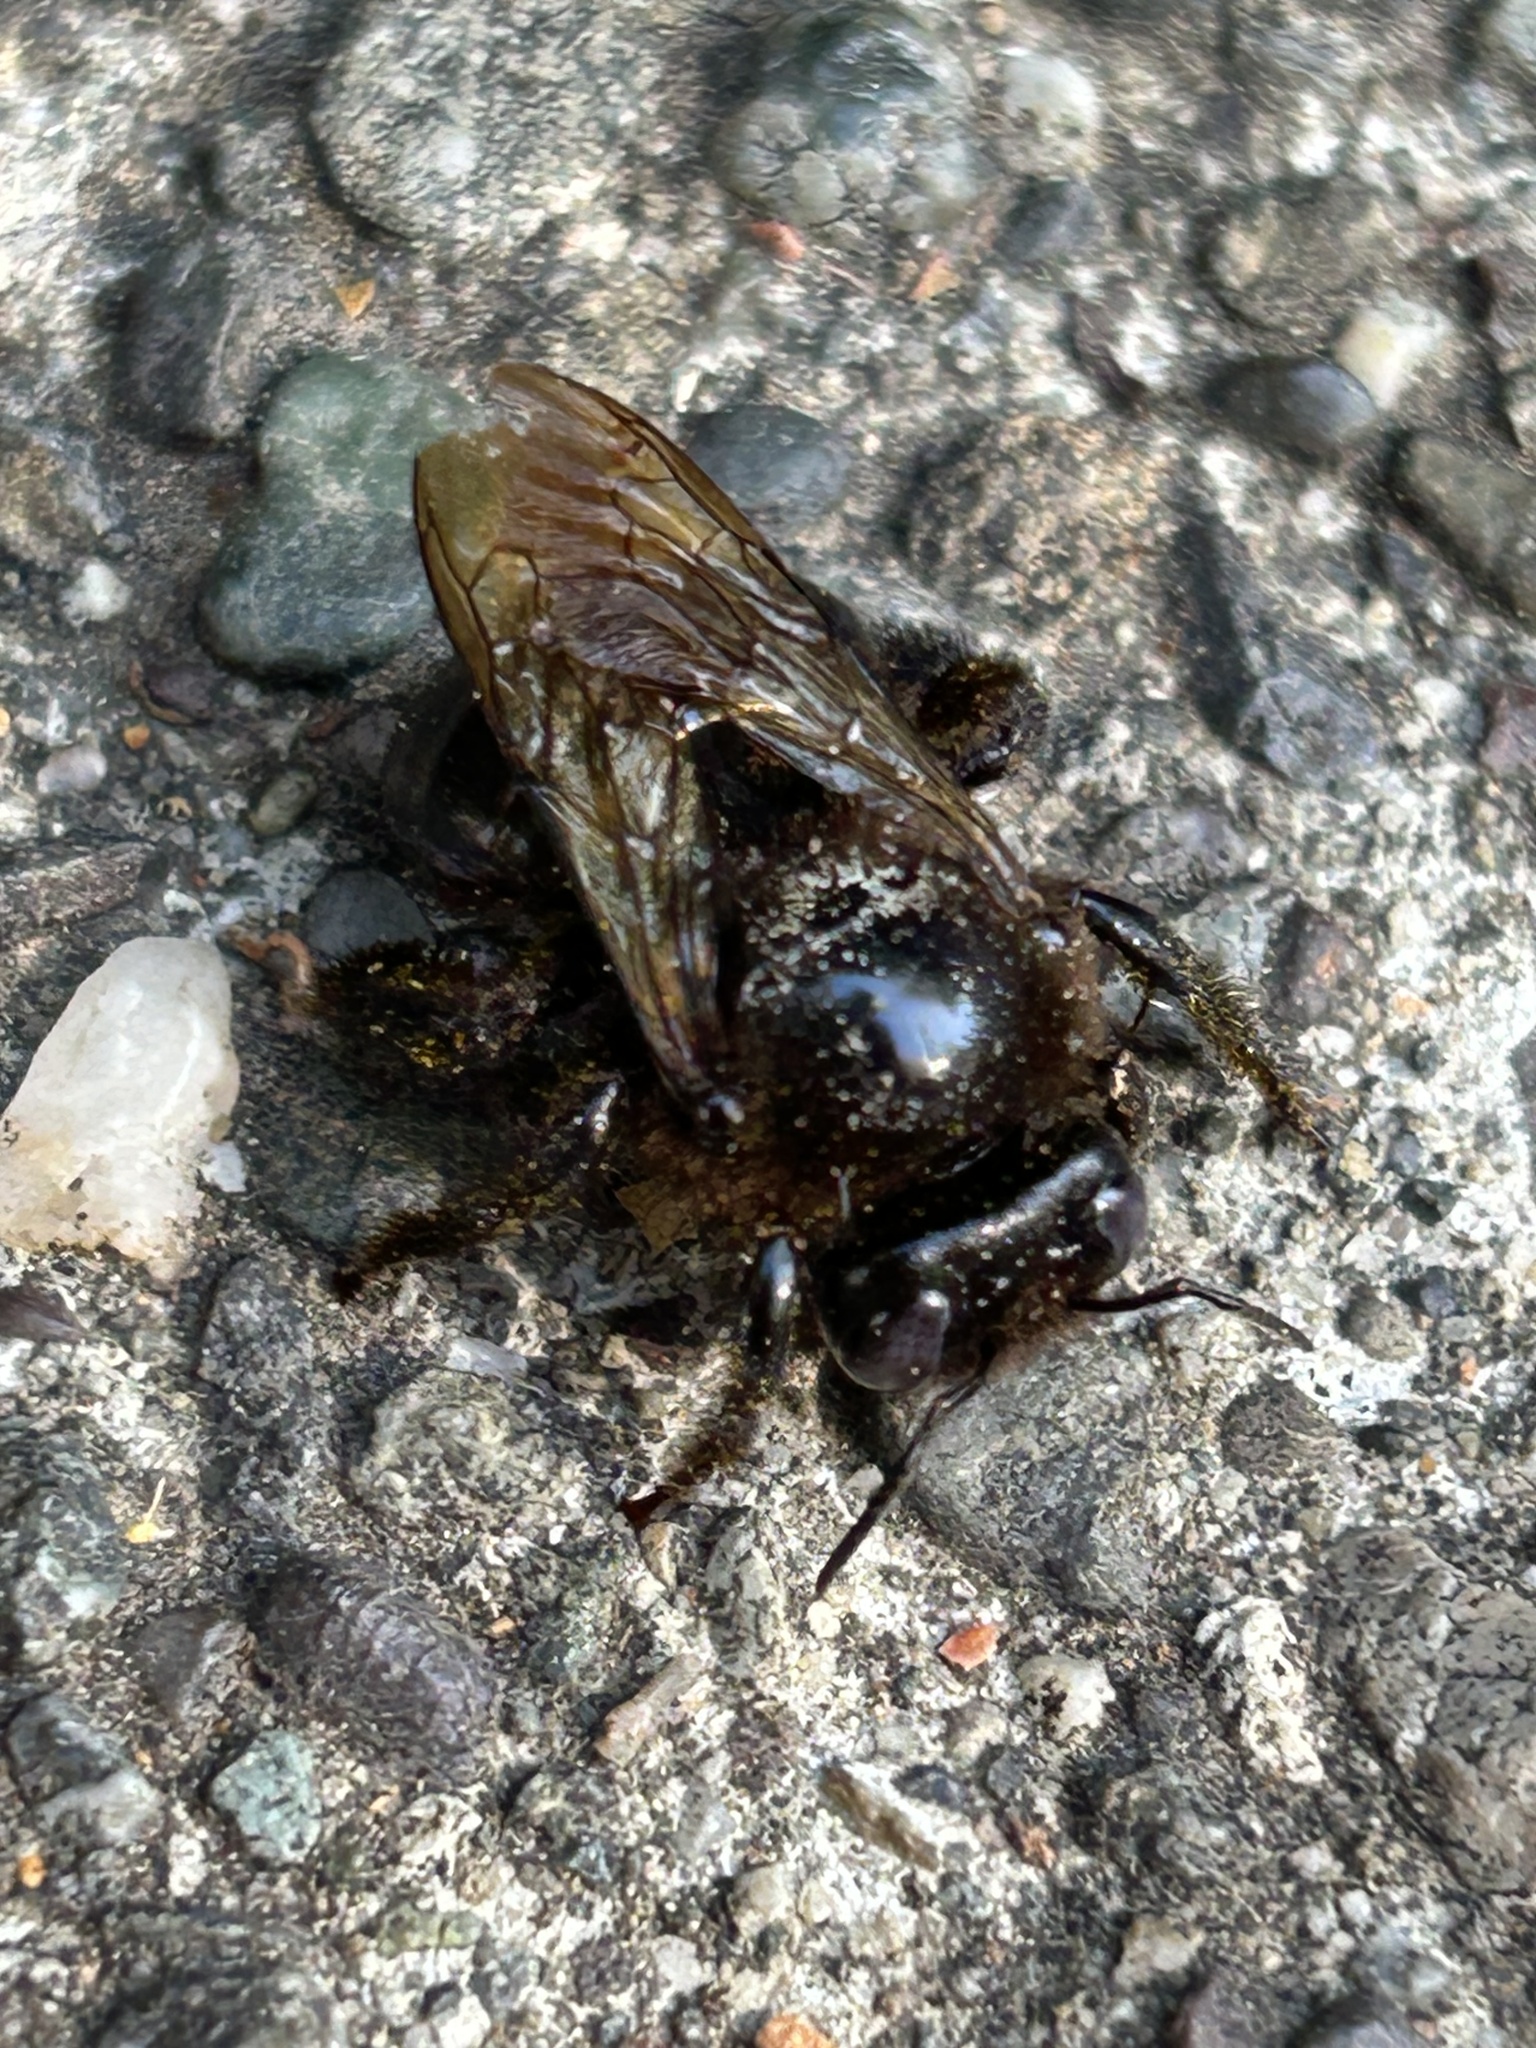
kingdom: Animalia
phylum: Arthropoda
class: Insecta
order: Hymenoptera
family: Apidae
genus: Xylocopa
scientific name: Xylocopa tabaniformis
